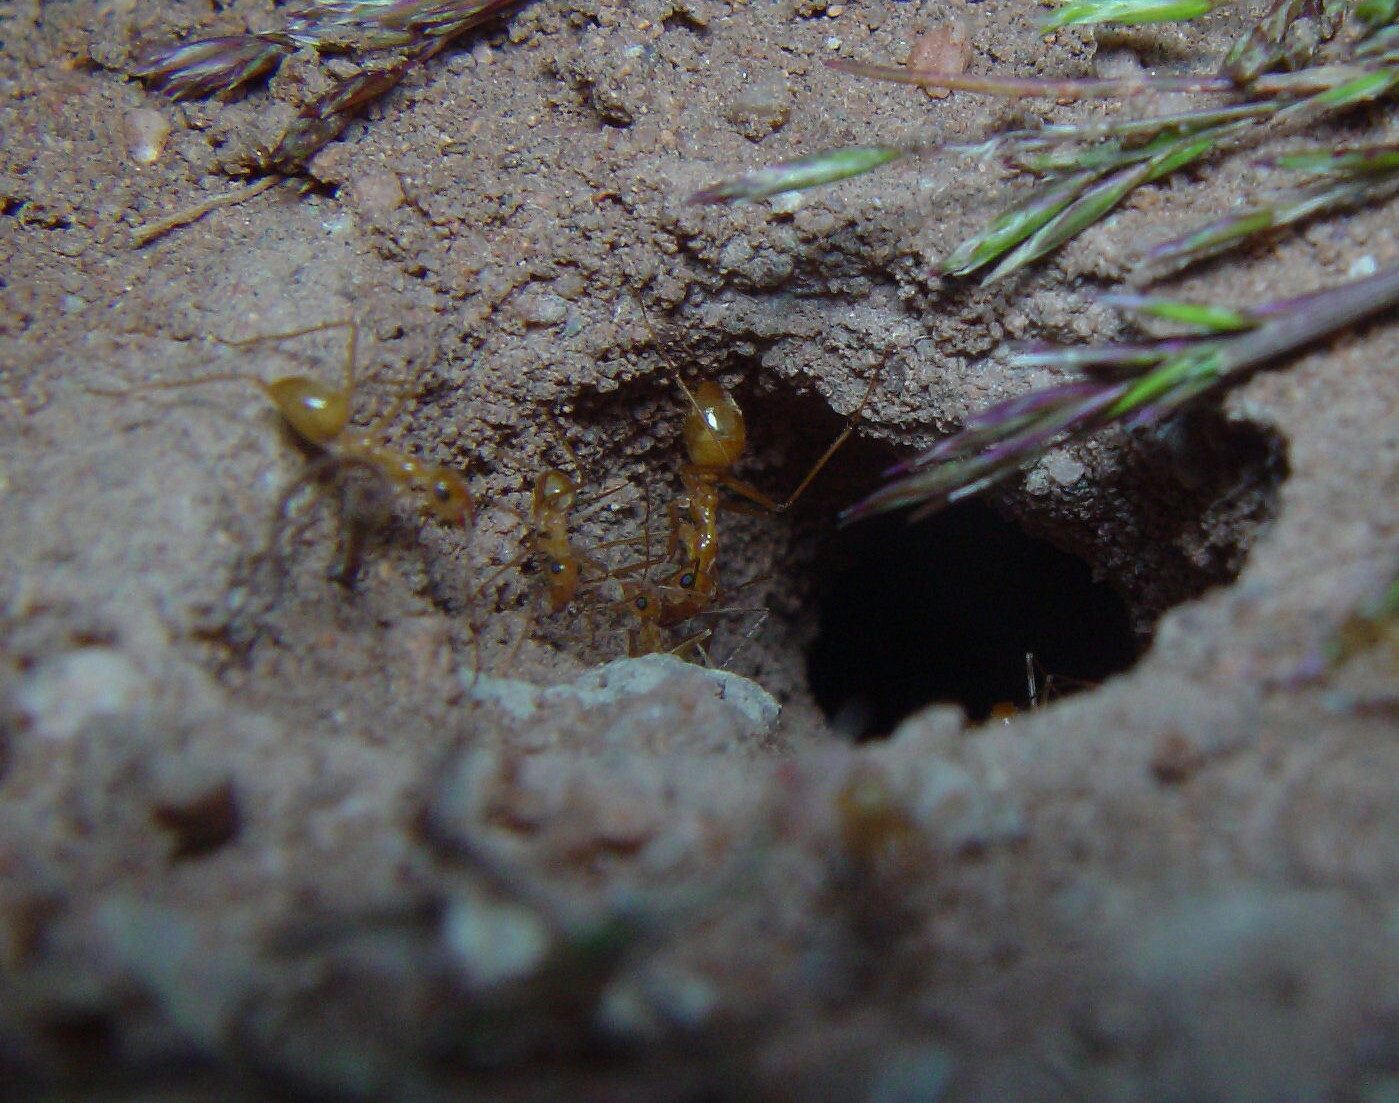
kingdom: Animalia
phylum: Arthropoda
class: Insecta
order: Hymenoptera
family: Formicidae
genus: Myrmecocystus
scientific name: Myrmecocystus mexicanus
